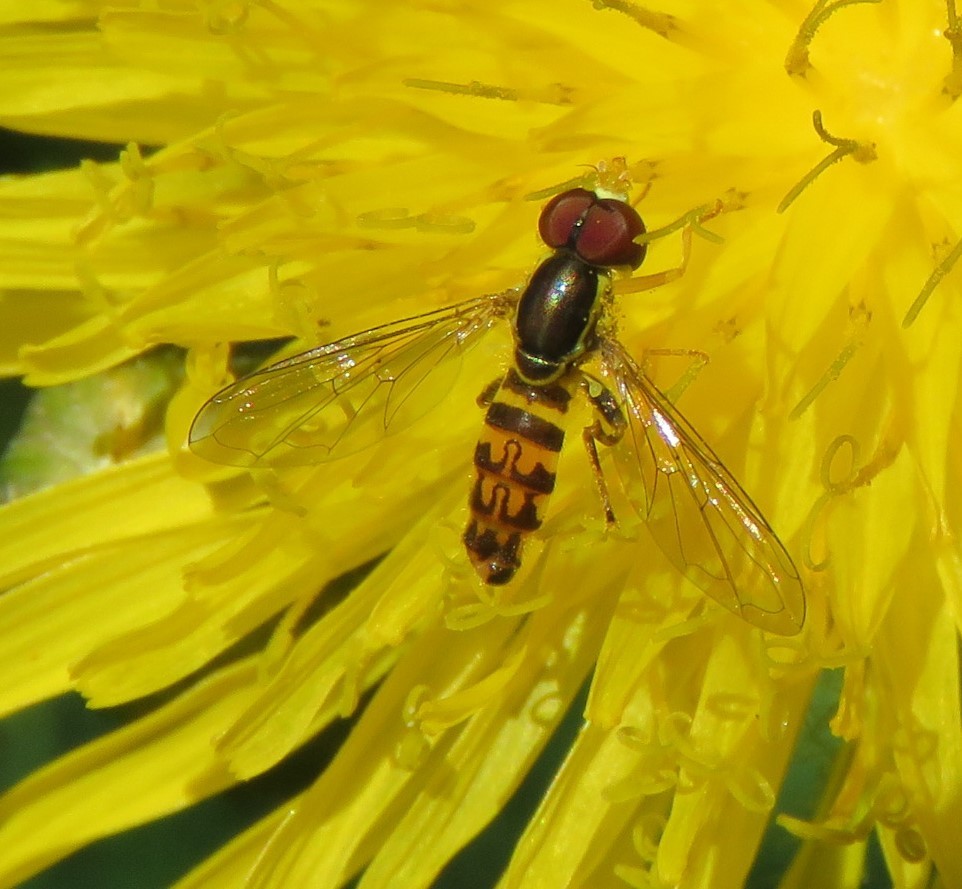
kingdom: Animalia
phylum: Arthropoda
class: Insecta
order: Diptera
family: Syrphidae
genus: Toxomerus
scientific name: Toxomerus geminatus
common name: Eastern calligrapher
